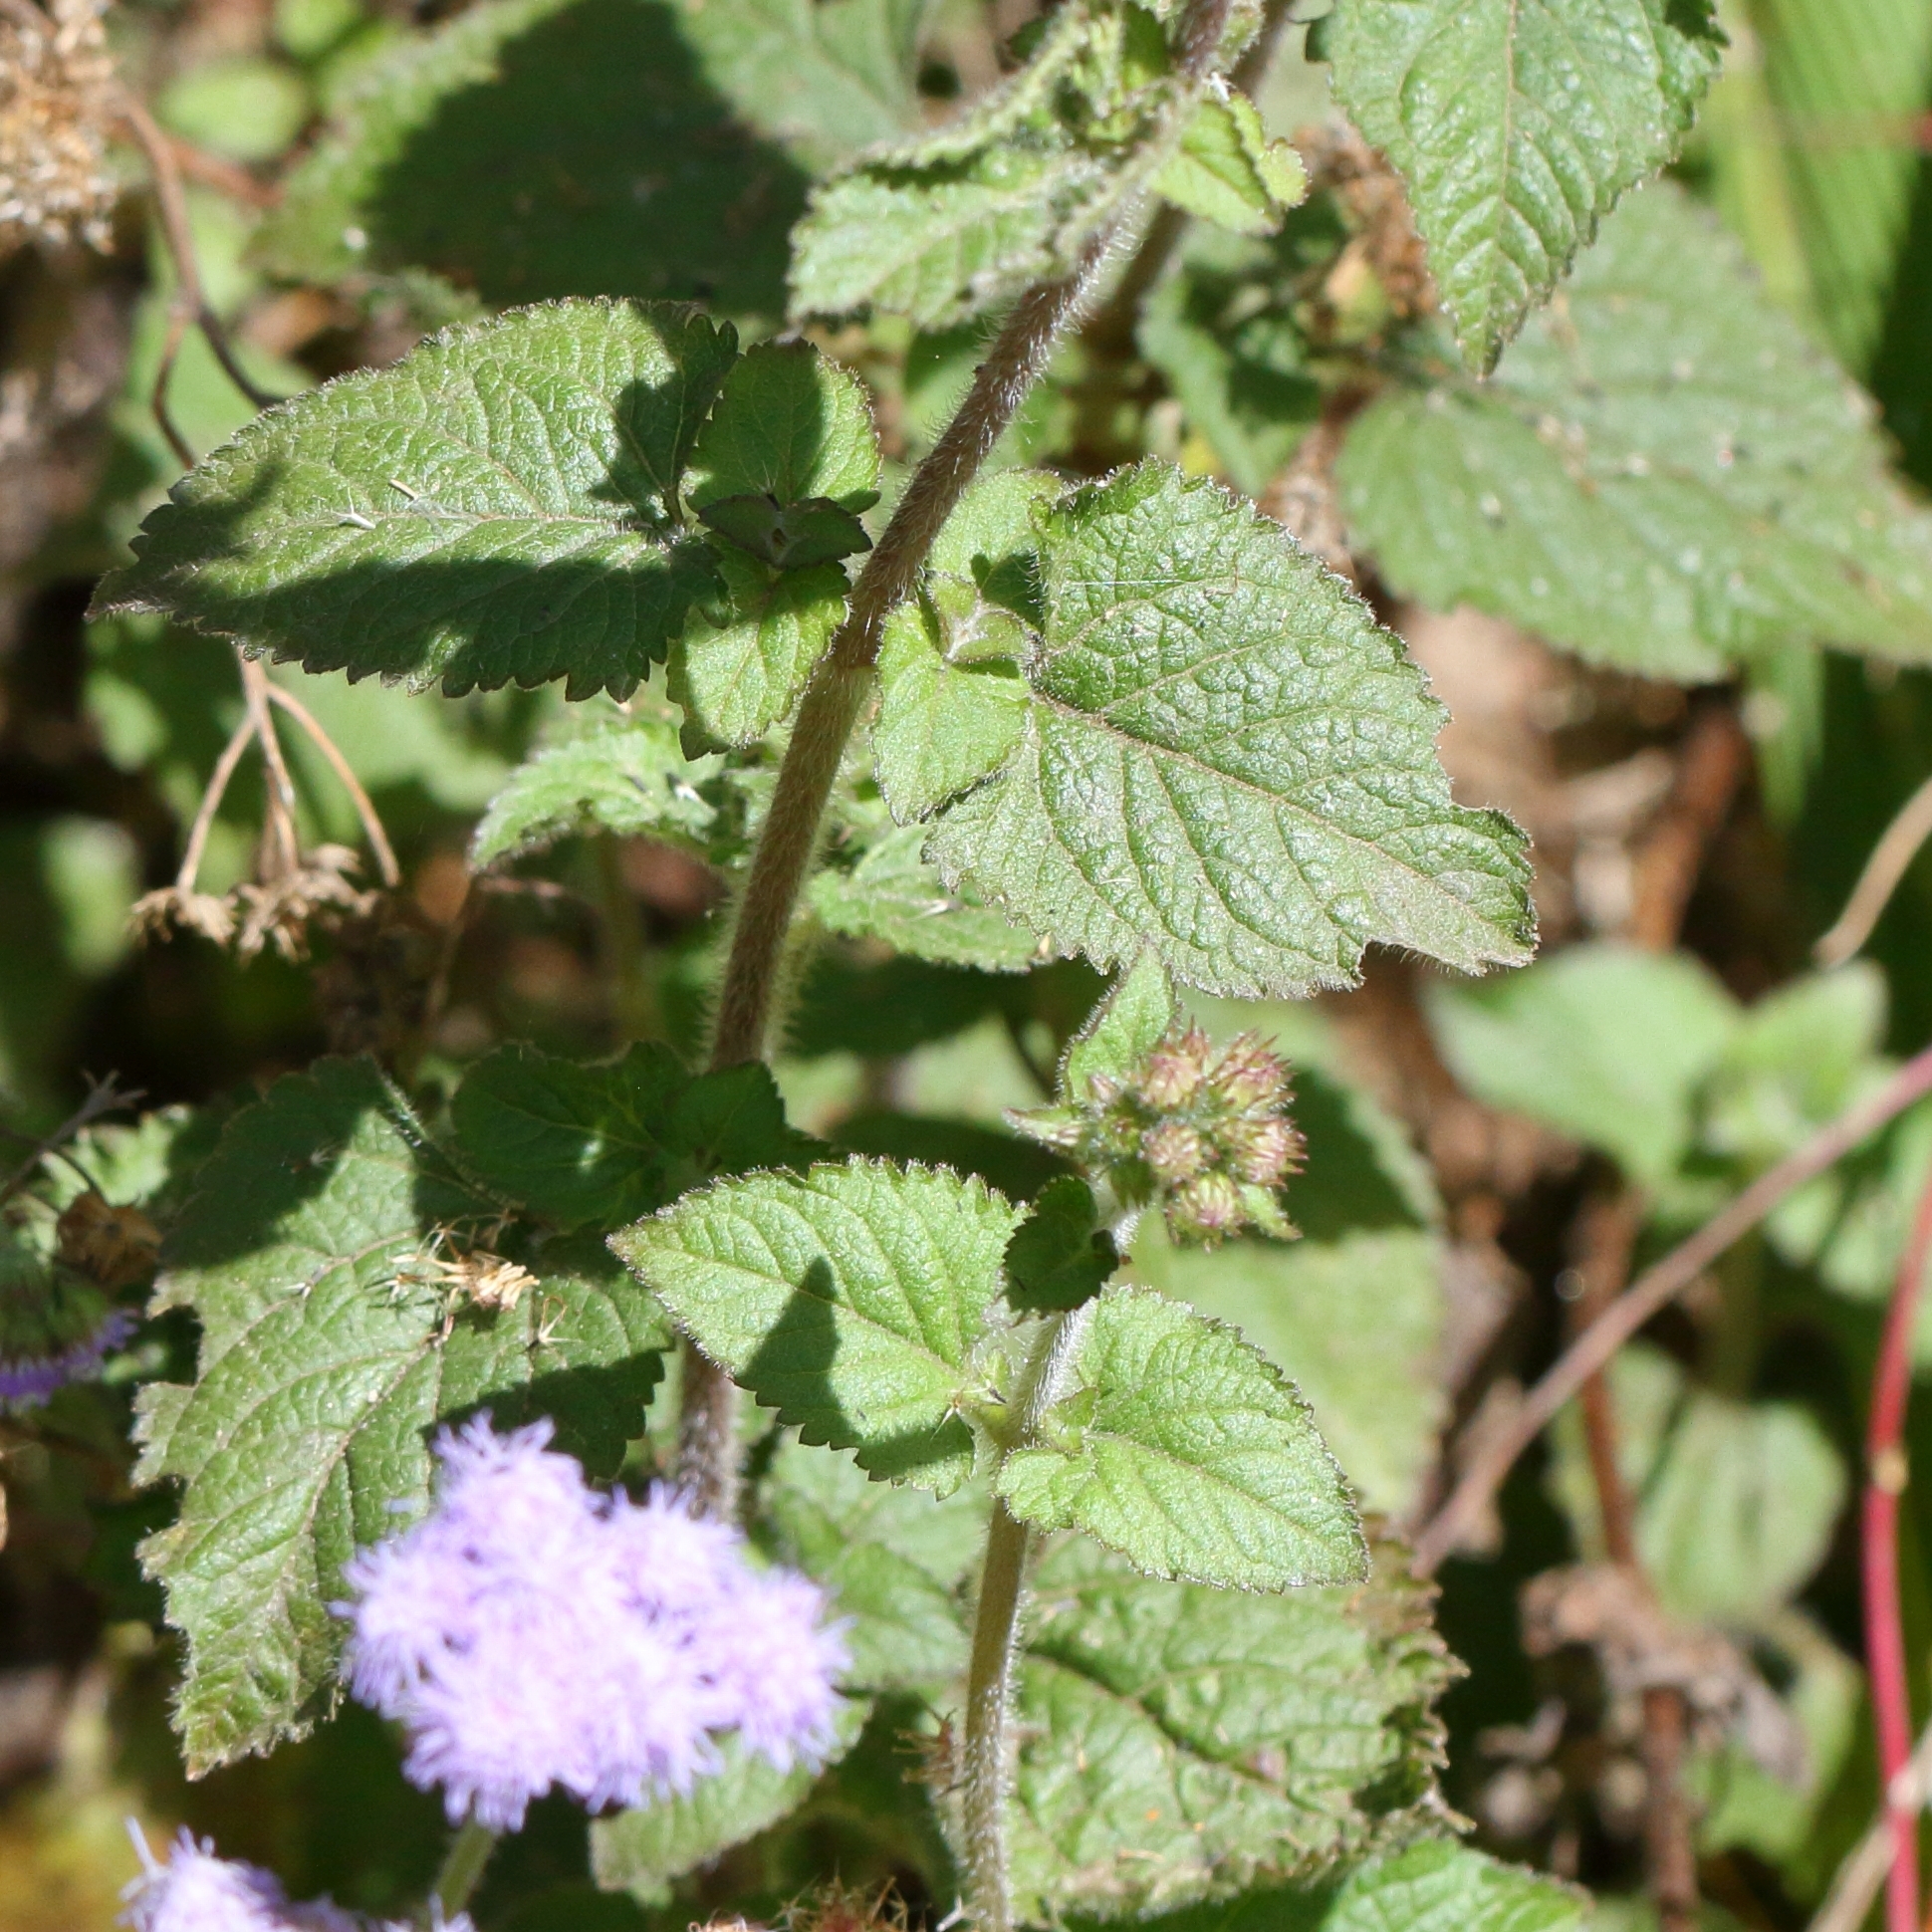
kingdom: Plantae
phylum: Tracheophyta
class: Magnoliopsida
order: Asterales
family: Asteraceae
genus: Ageratum
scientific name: Ageratum houstonianum
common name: Bluemink
